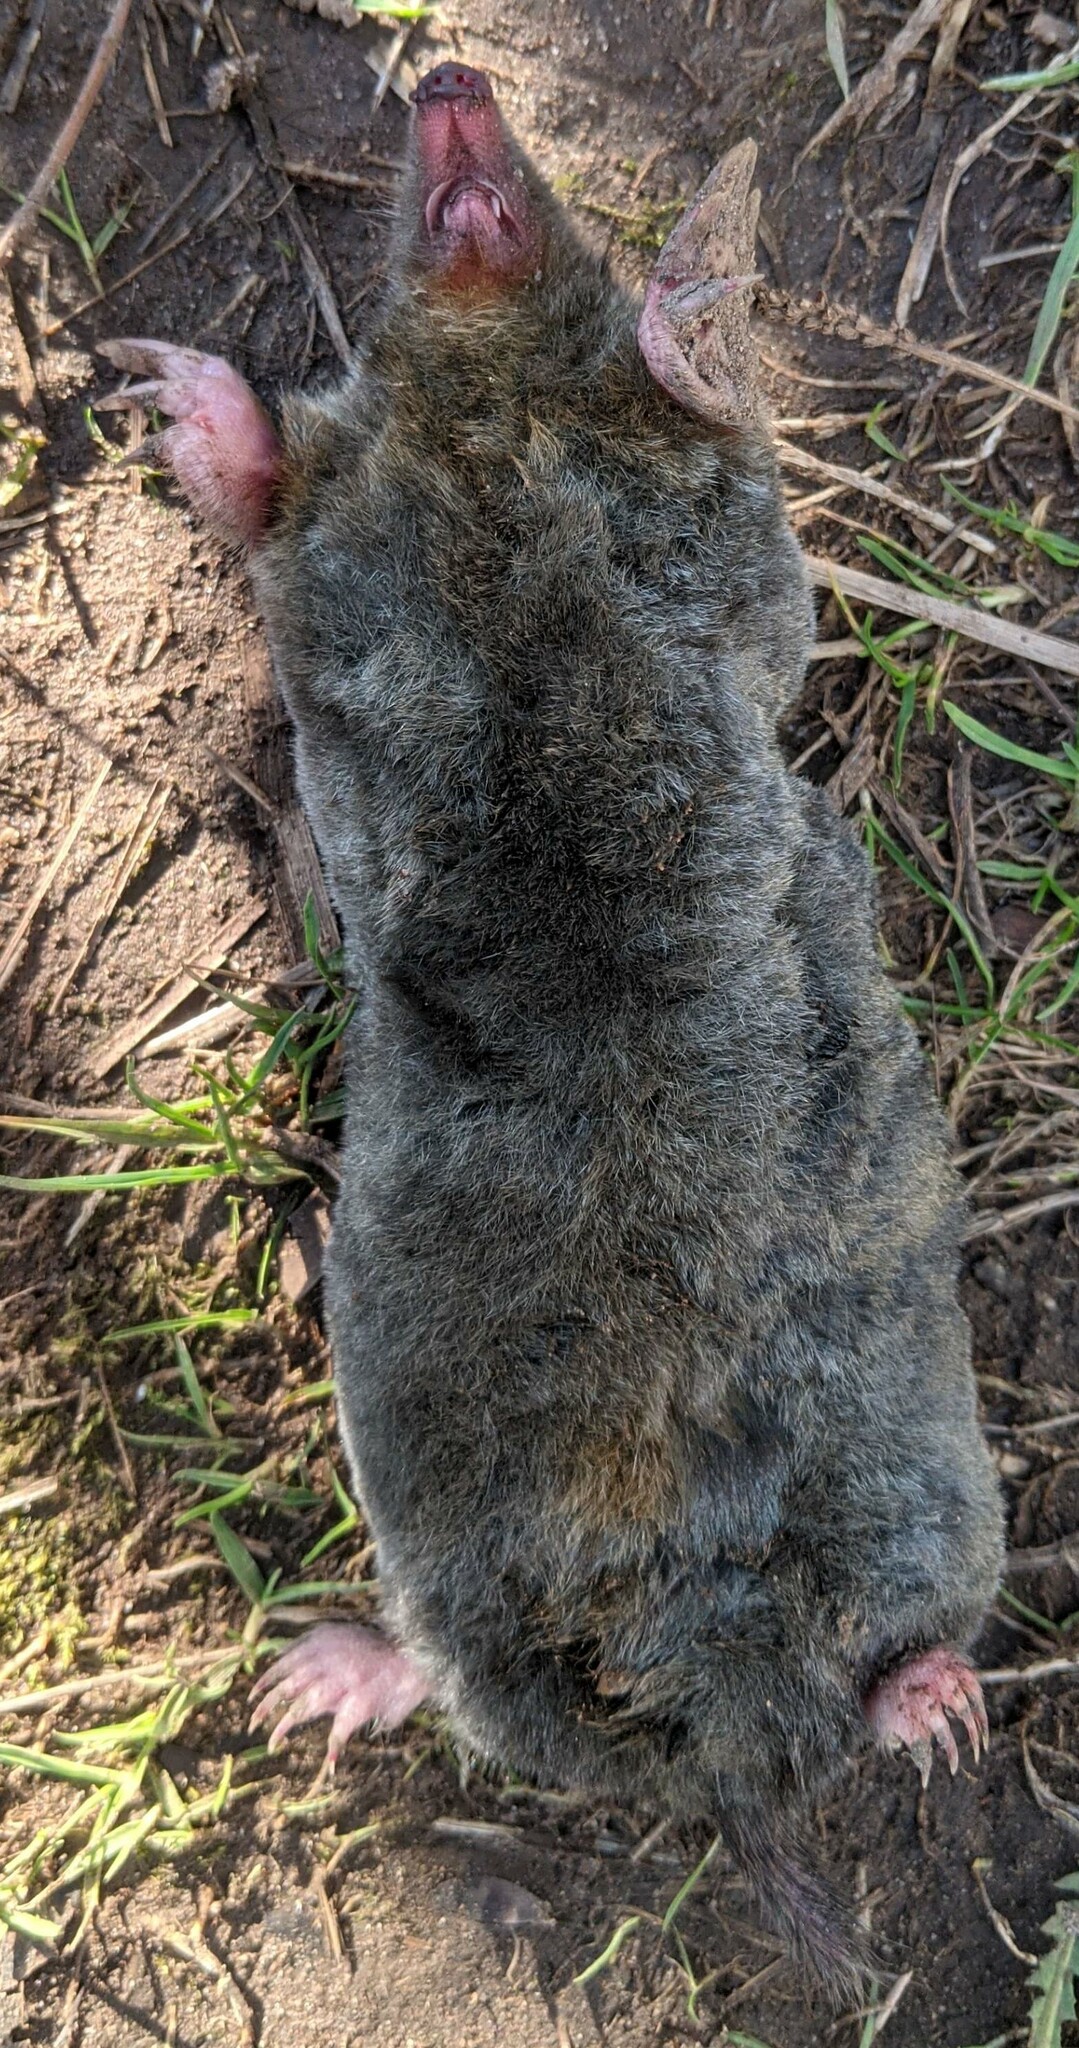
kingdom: Animalia
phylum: Chordata
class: Mammalia
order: Soricomorpha
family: Talpidae
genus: Talpa
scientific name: Talpa europaea
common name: European mole
